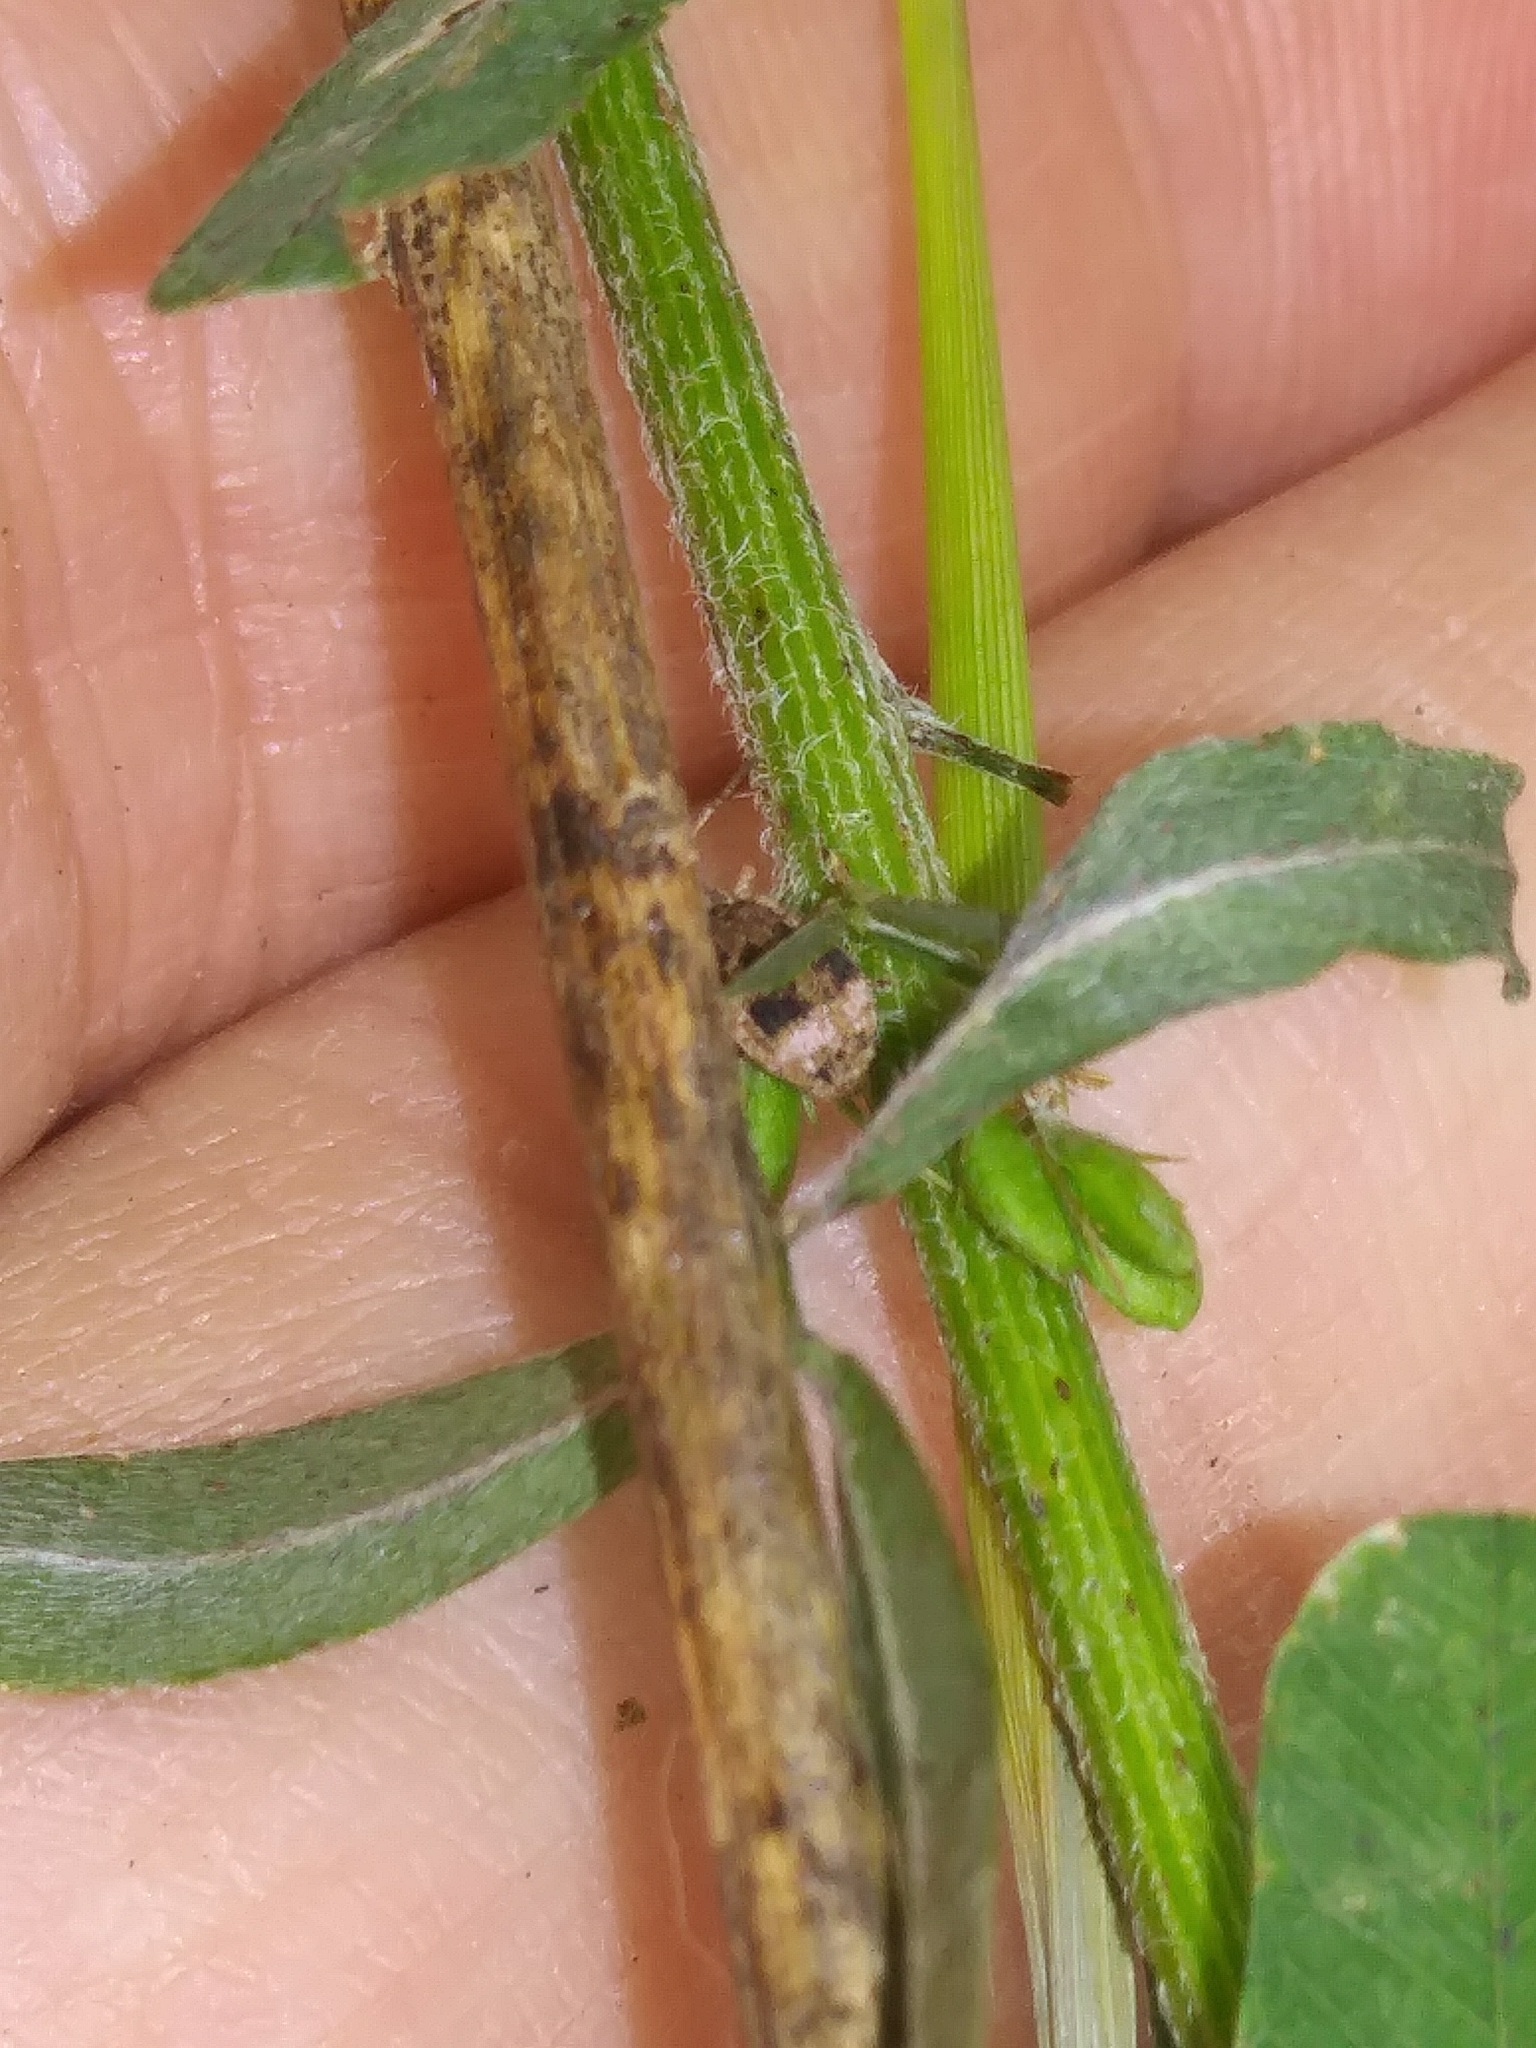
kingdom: Animalia
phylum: Arthropoda
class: Insecta
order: Coleoptera
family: Curculionidae
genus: Pseudoedophrys
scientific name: Pseudoedophrys hilleri
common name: Weevil
